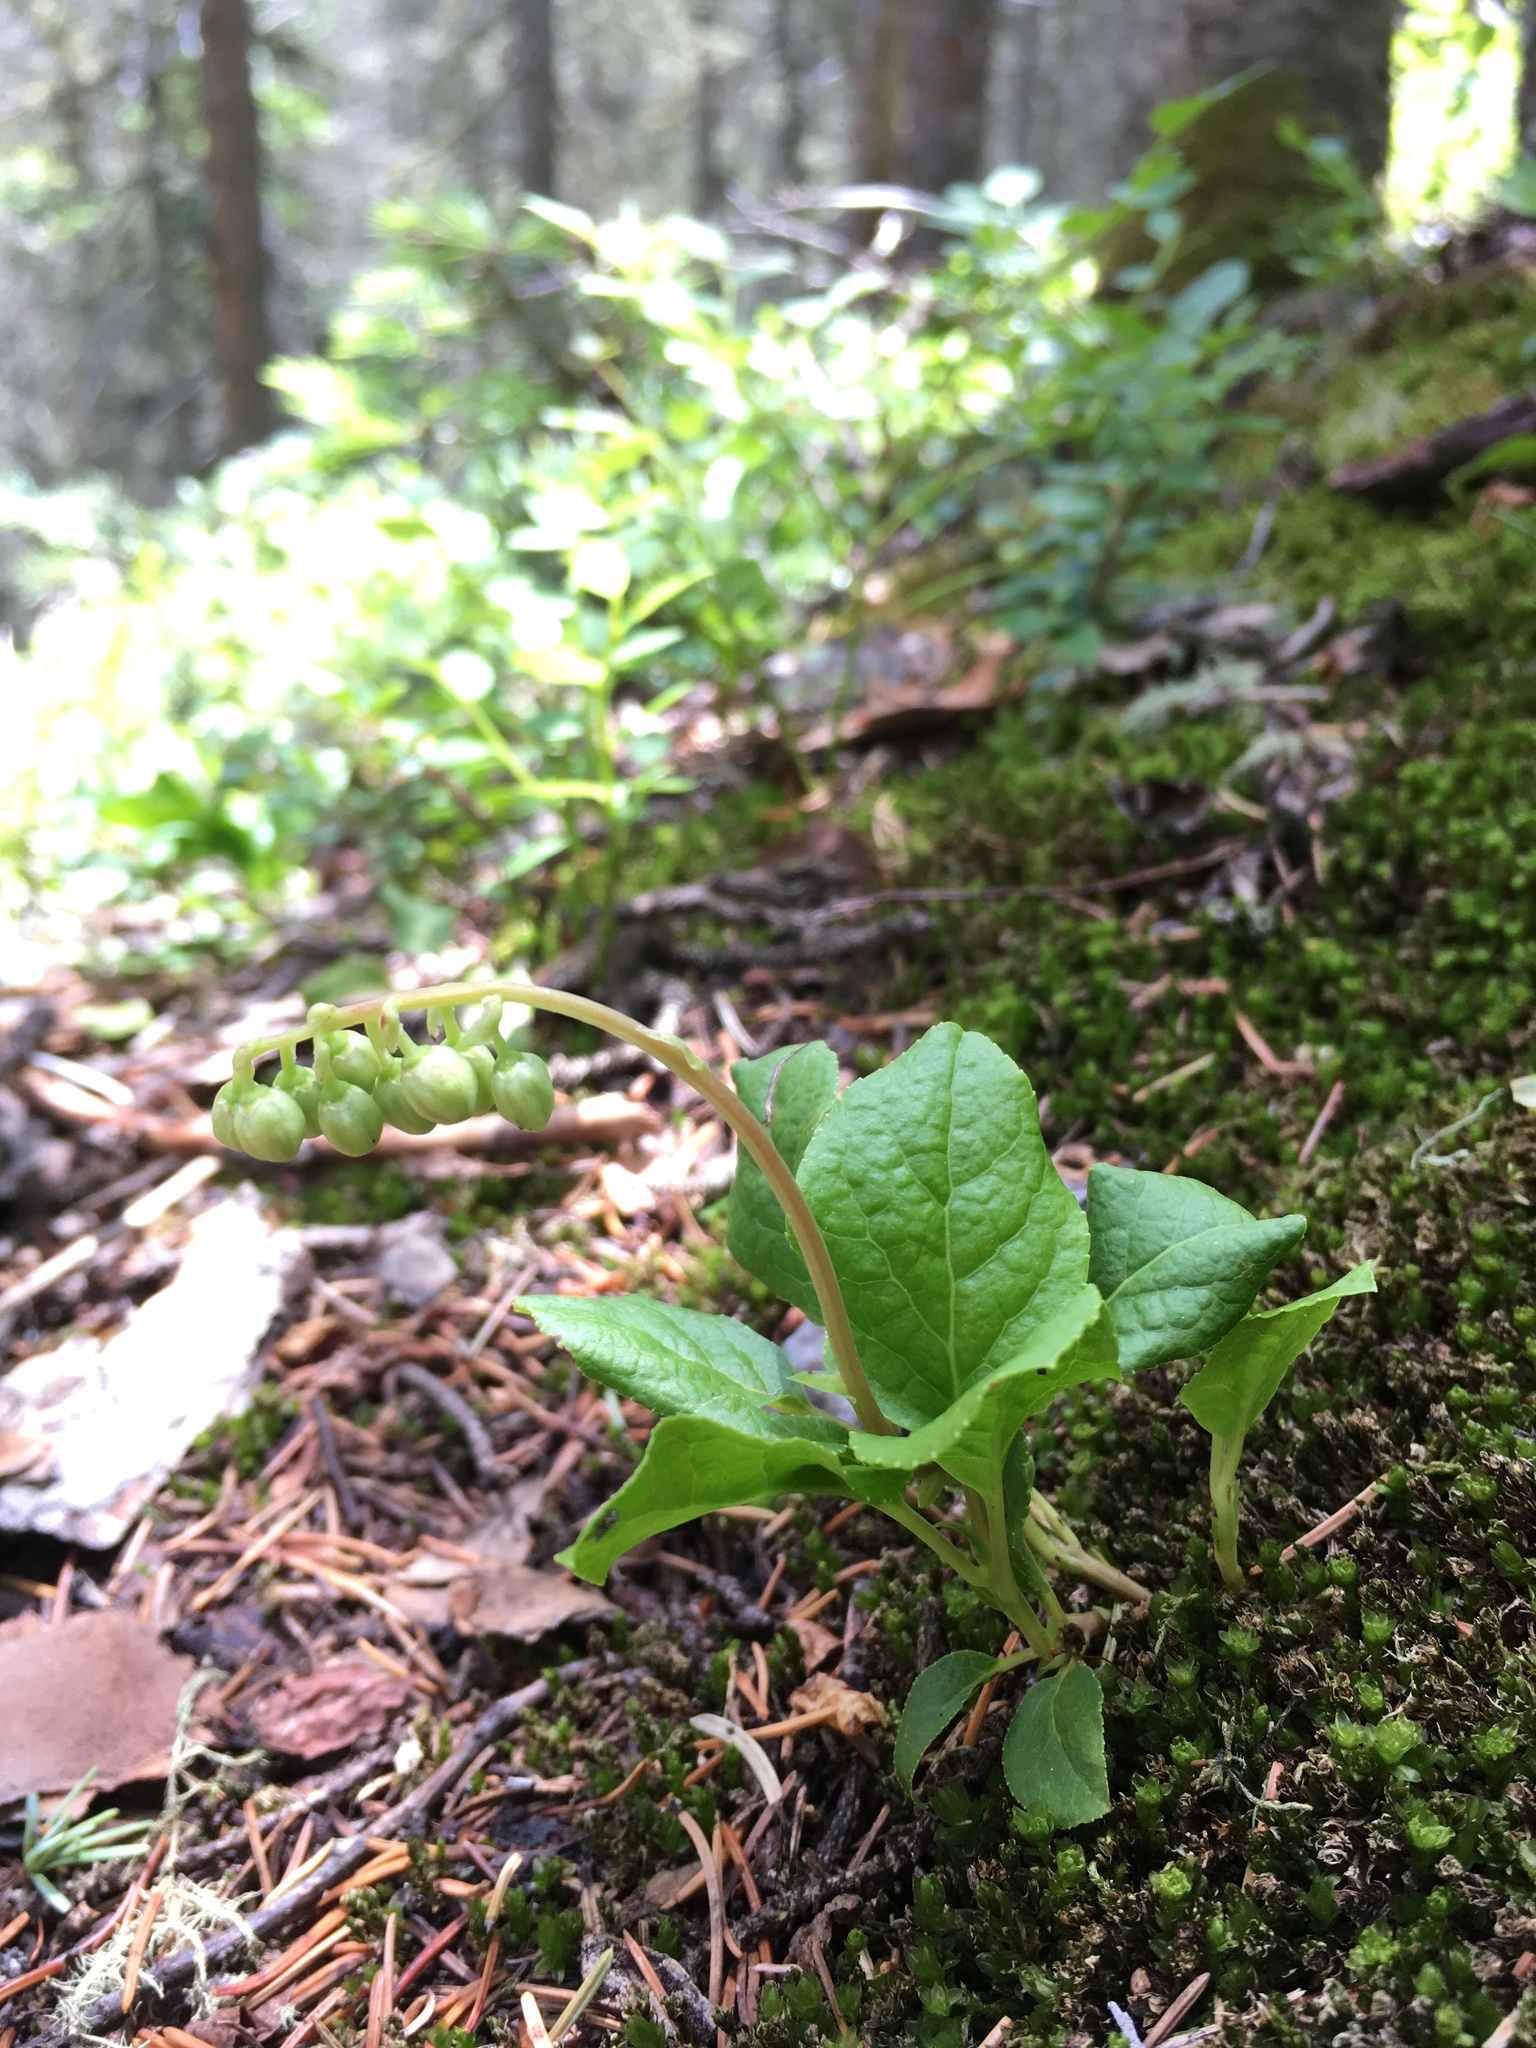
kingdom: Plantae
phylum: Tracheophyta
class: Magnoliopsida
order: Ericales
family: Ericaceae
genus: Orthilia
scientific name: Orthilia secunda
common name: One-sided orthilia
